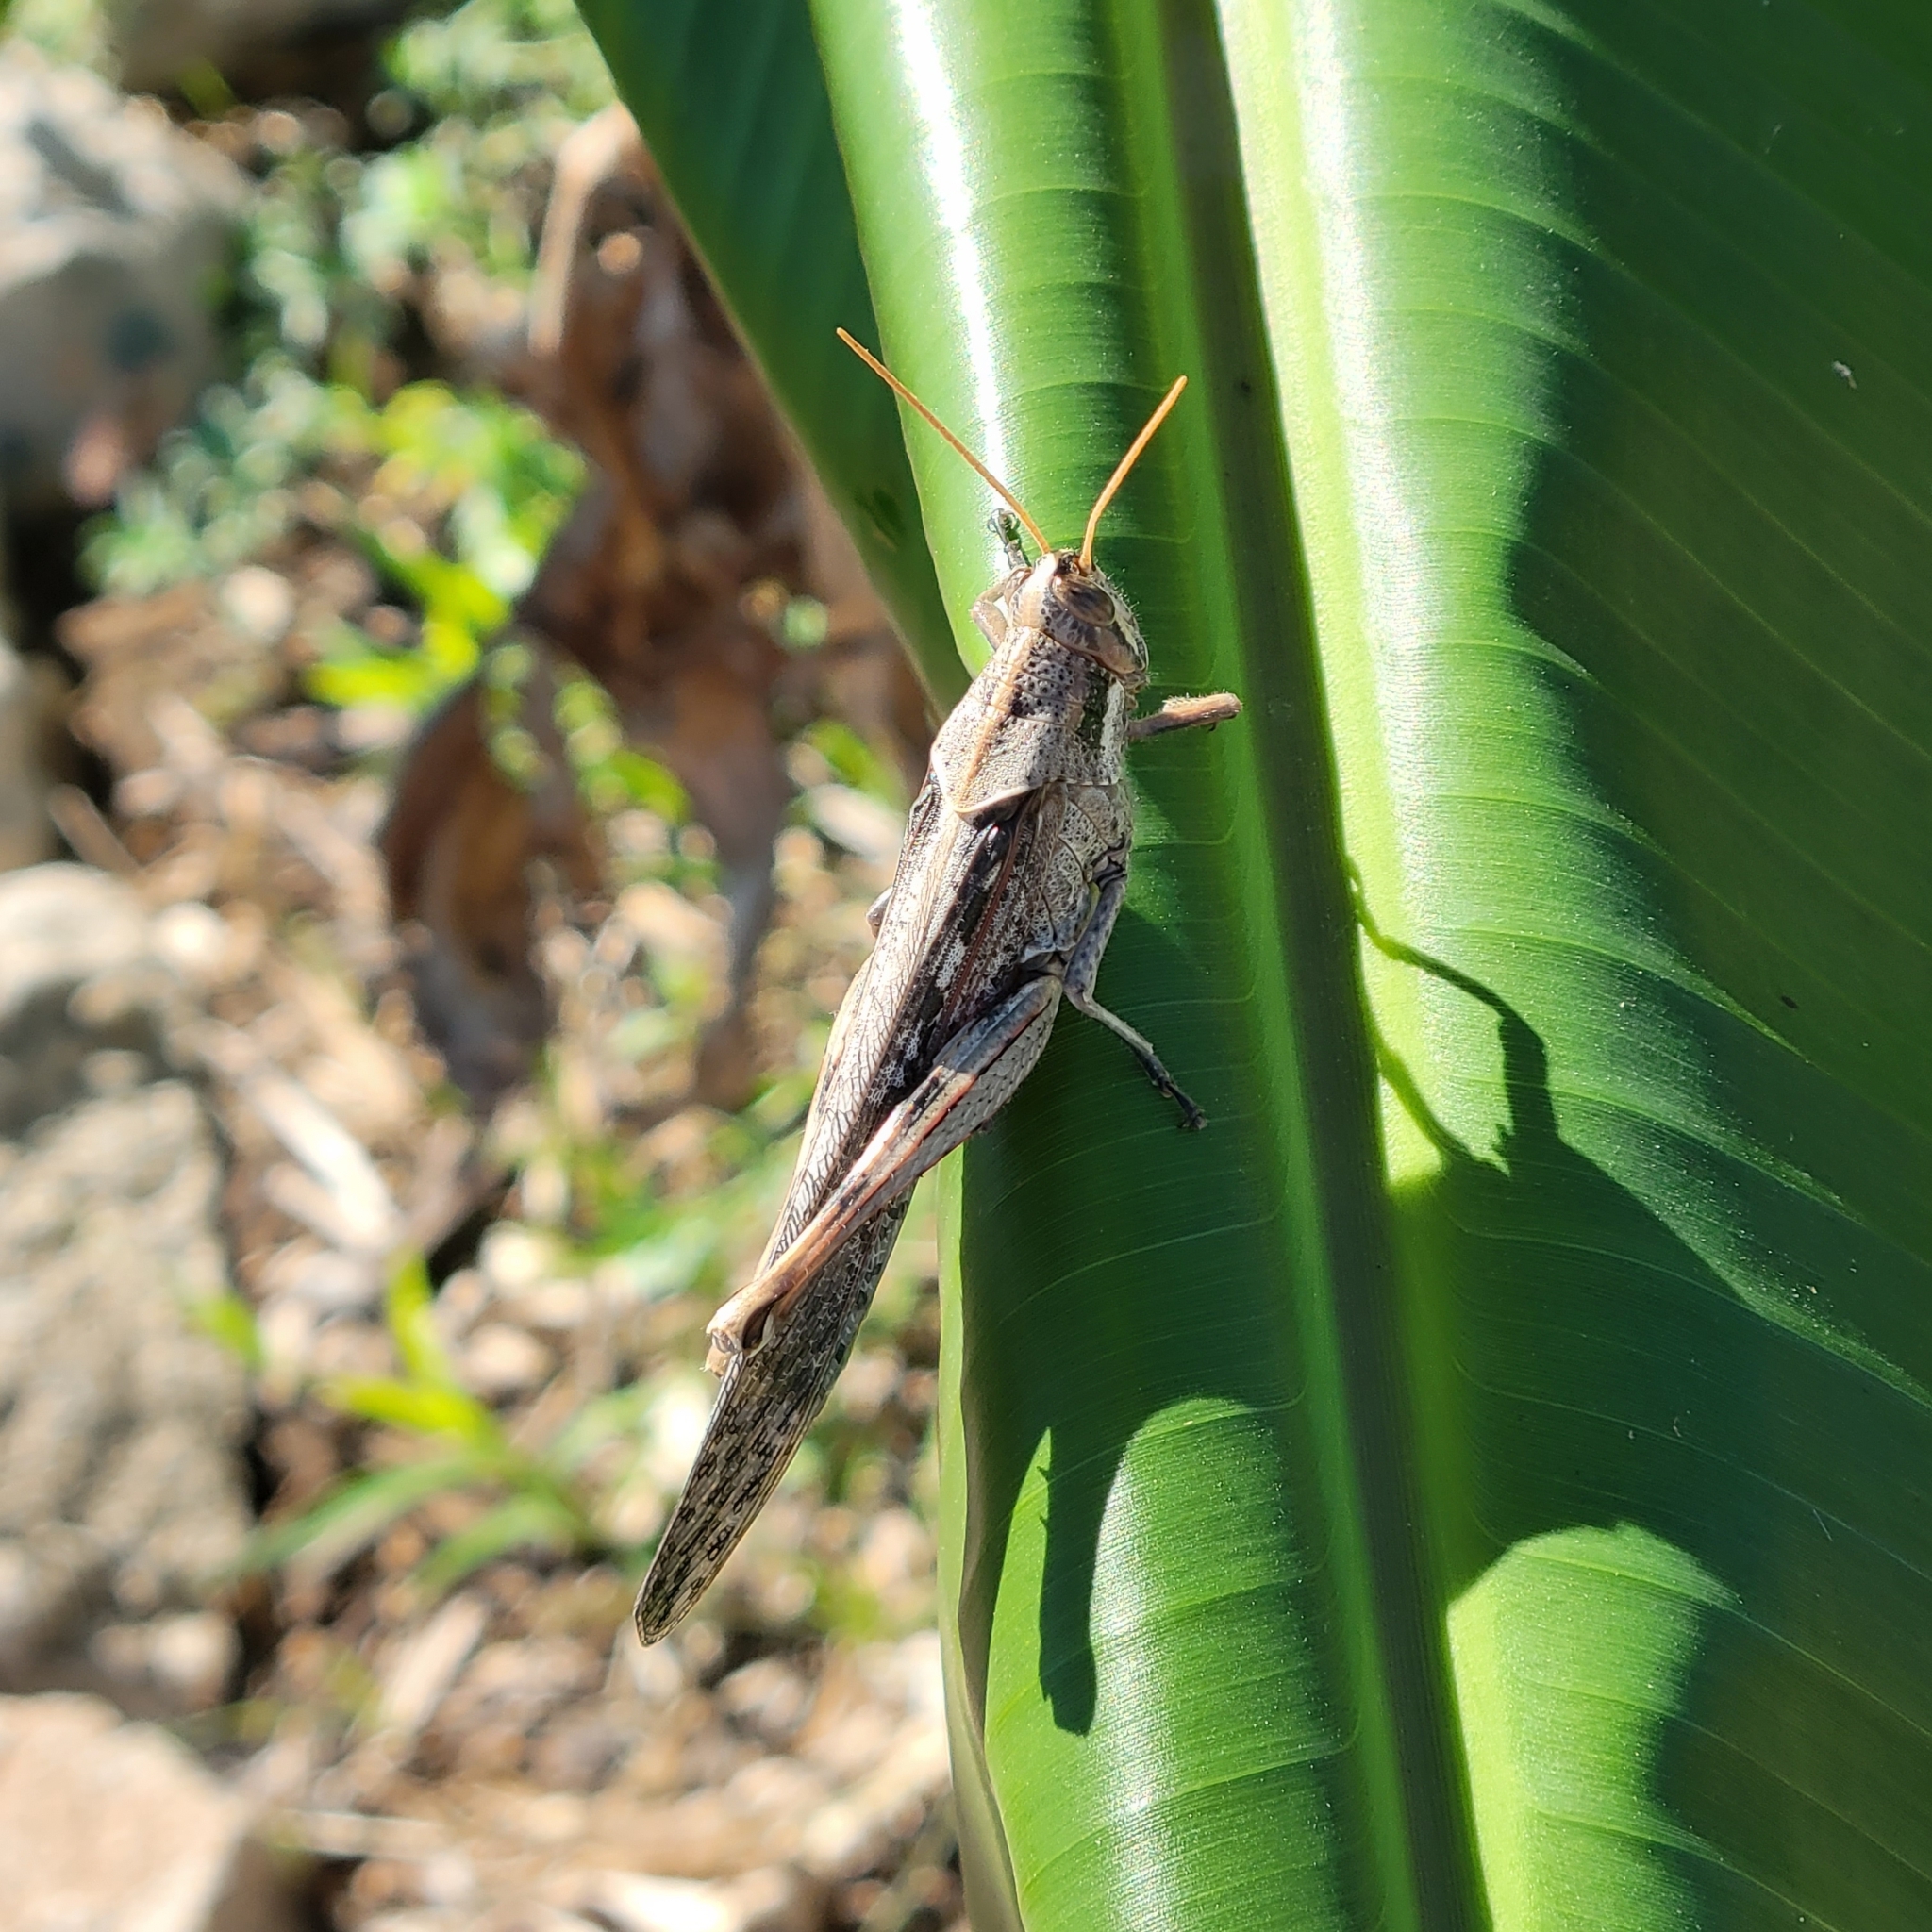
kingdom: Animalia
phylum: Arthropoda
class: Insecta
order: Orthoptera
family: Acrididae
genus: Schistocerca
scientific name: Schistocerca nitens
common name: Vagrant grasshopper
